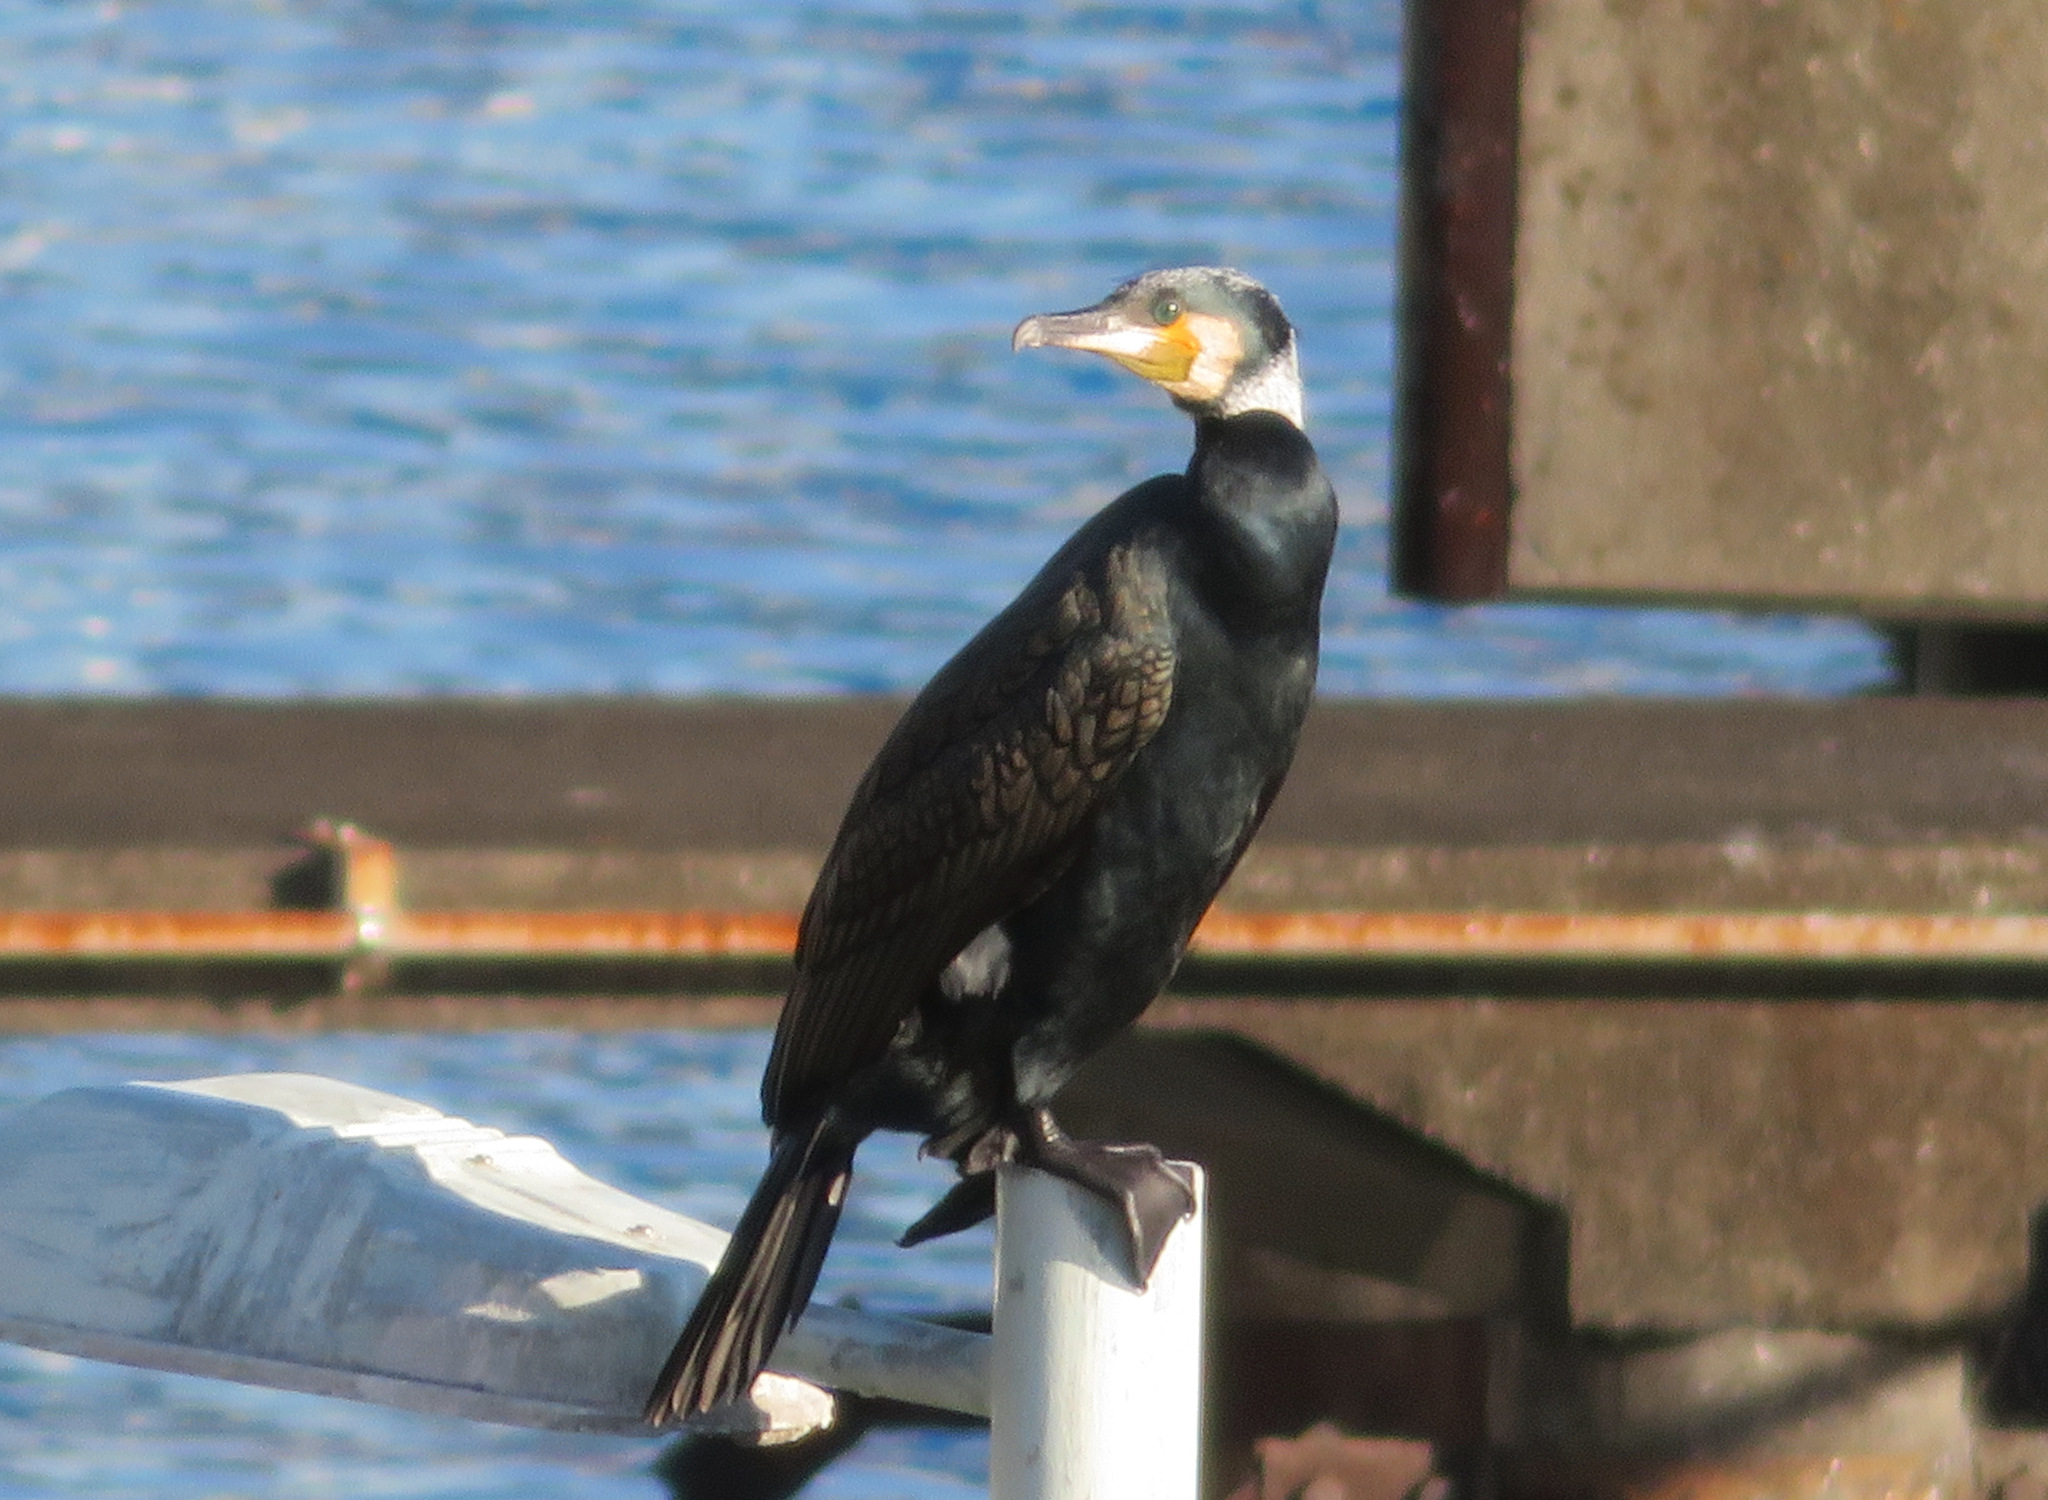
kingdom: Animalia
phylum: Chordata
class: Aves
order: Suliformes
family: Phalacrocoracidae
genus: Phalacrocorax
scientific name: Phalacrocorax carbo
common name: Great cormorant
